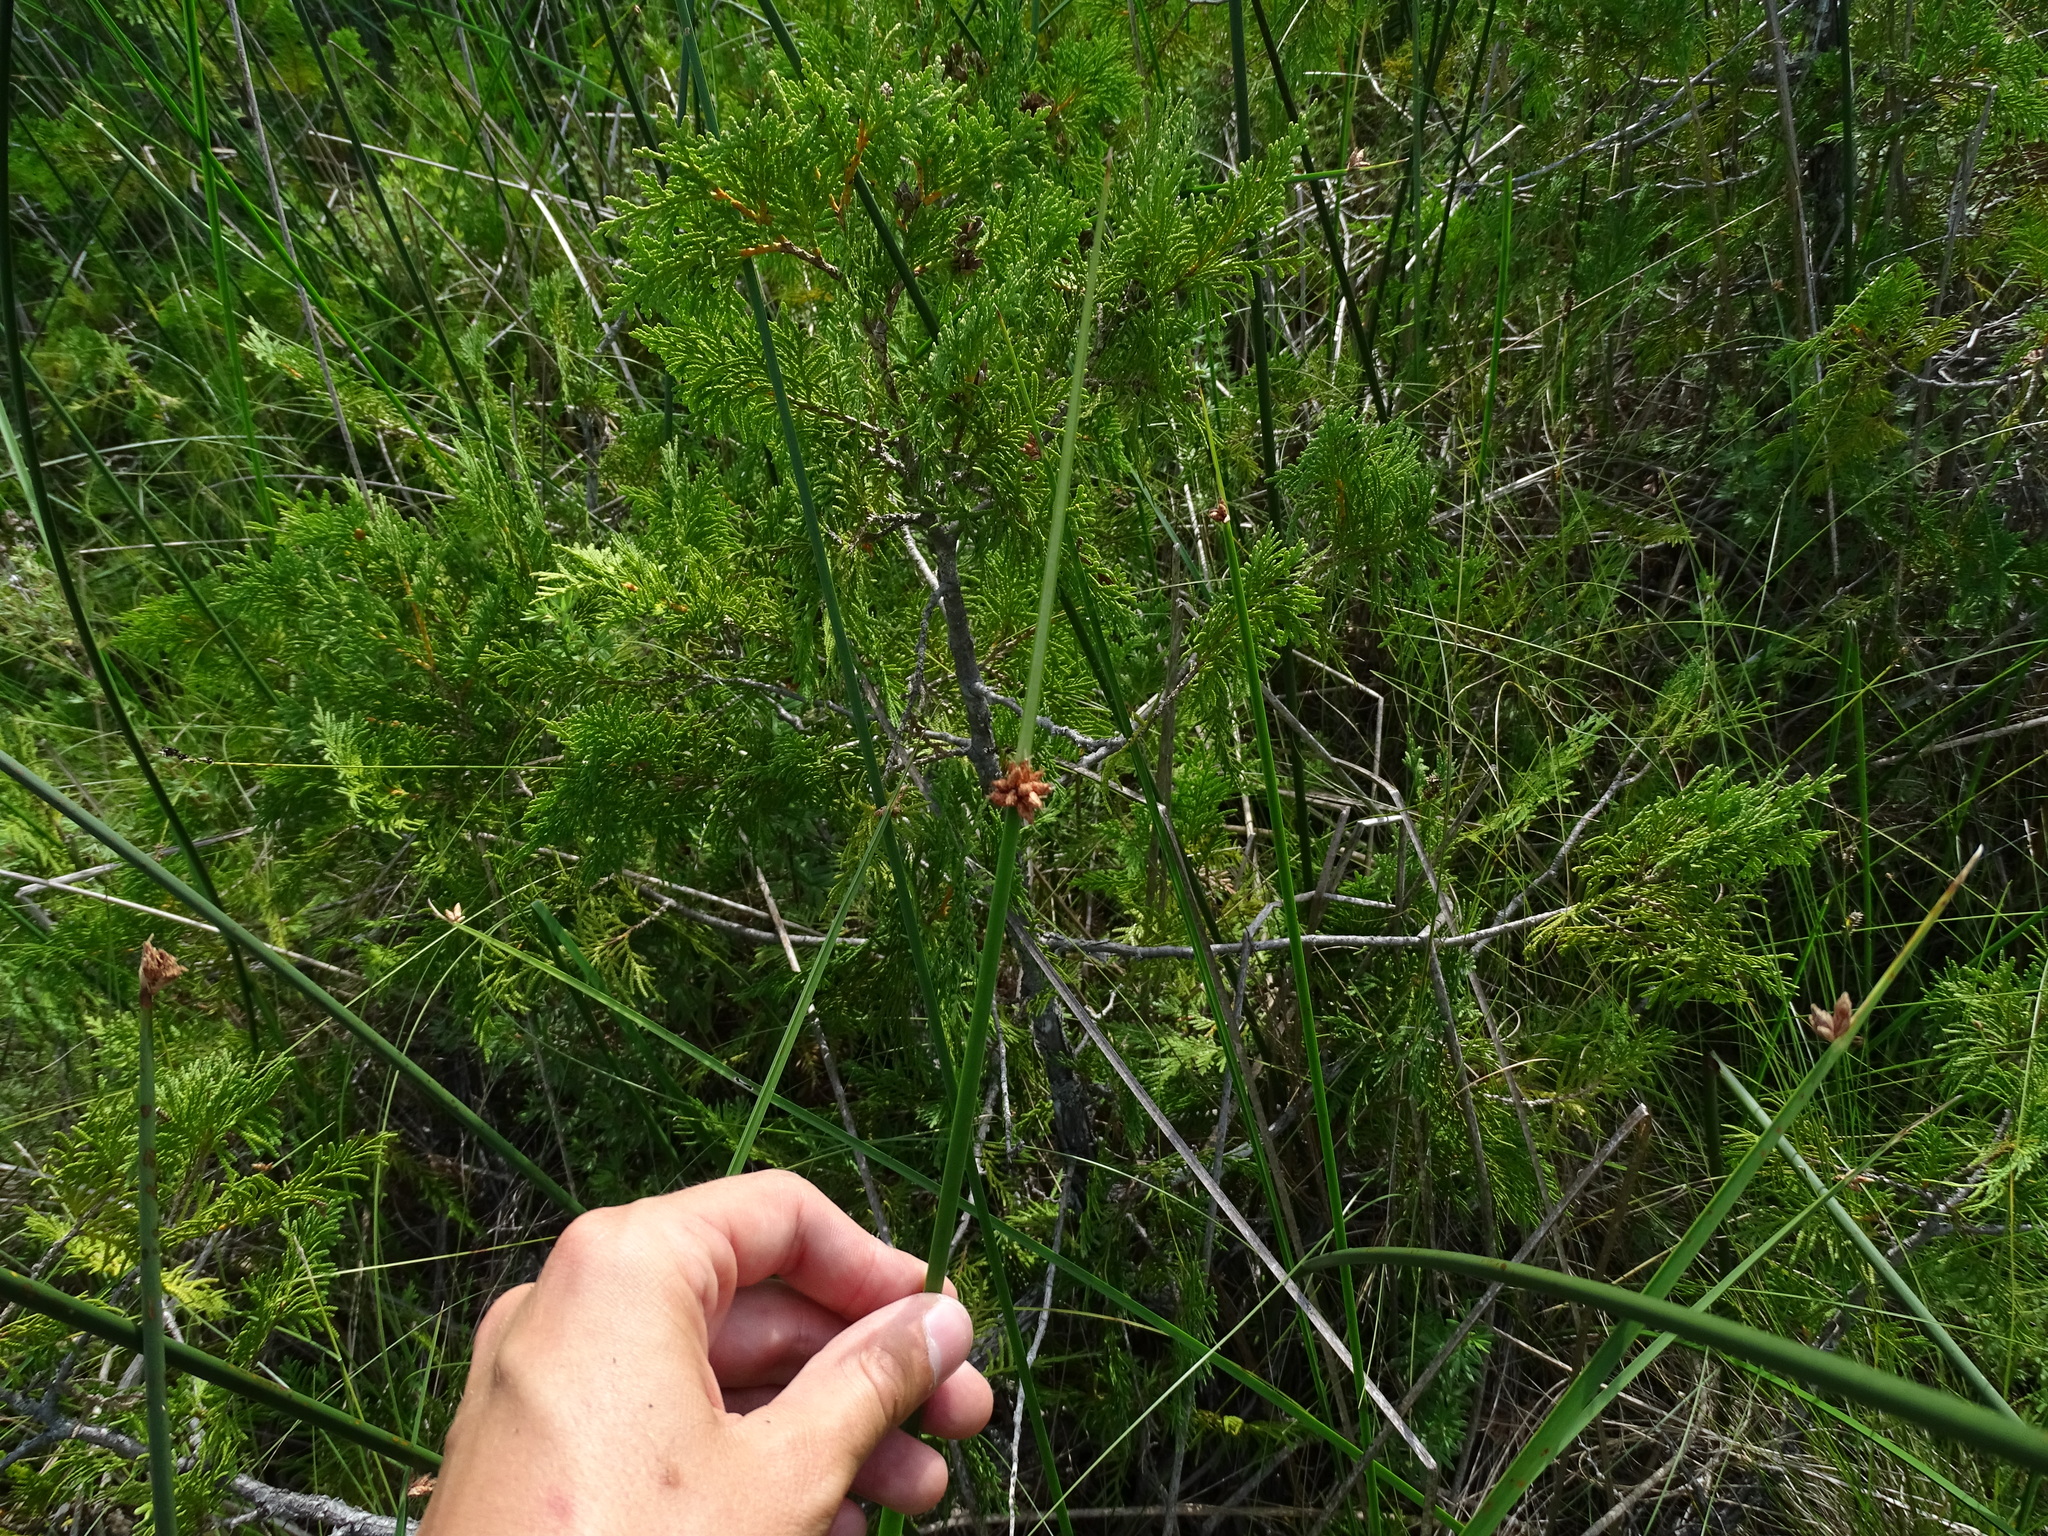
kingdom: Plantae
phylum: Tracheophyta
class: Liliopsida
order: Poales
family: Cyperaceae
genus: Schoenoplectus
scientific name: Schoenoplectus pungens
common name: Sharp club-rush
